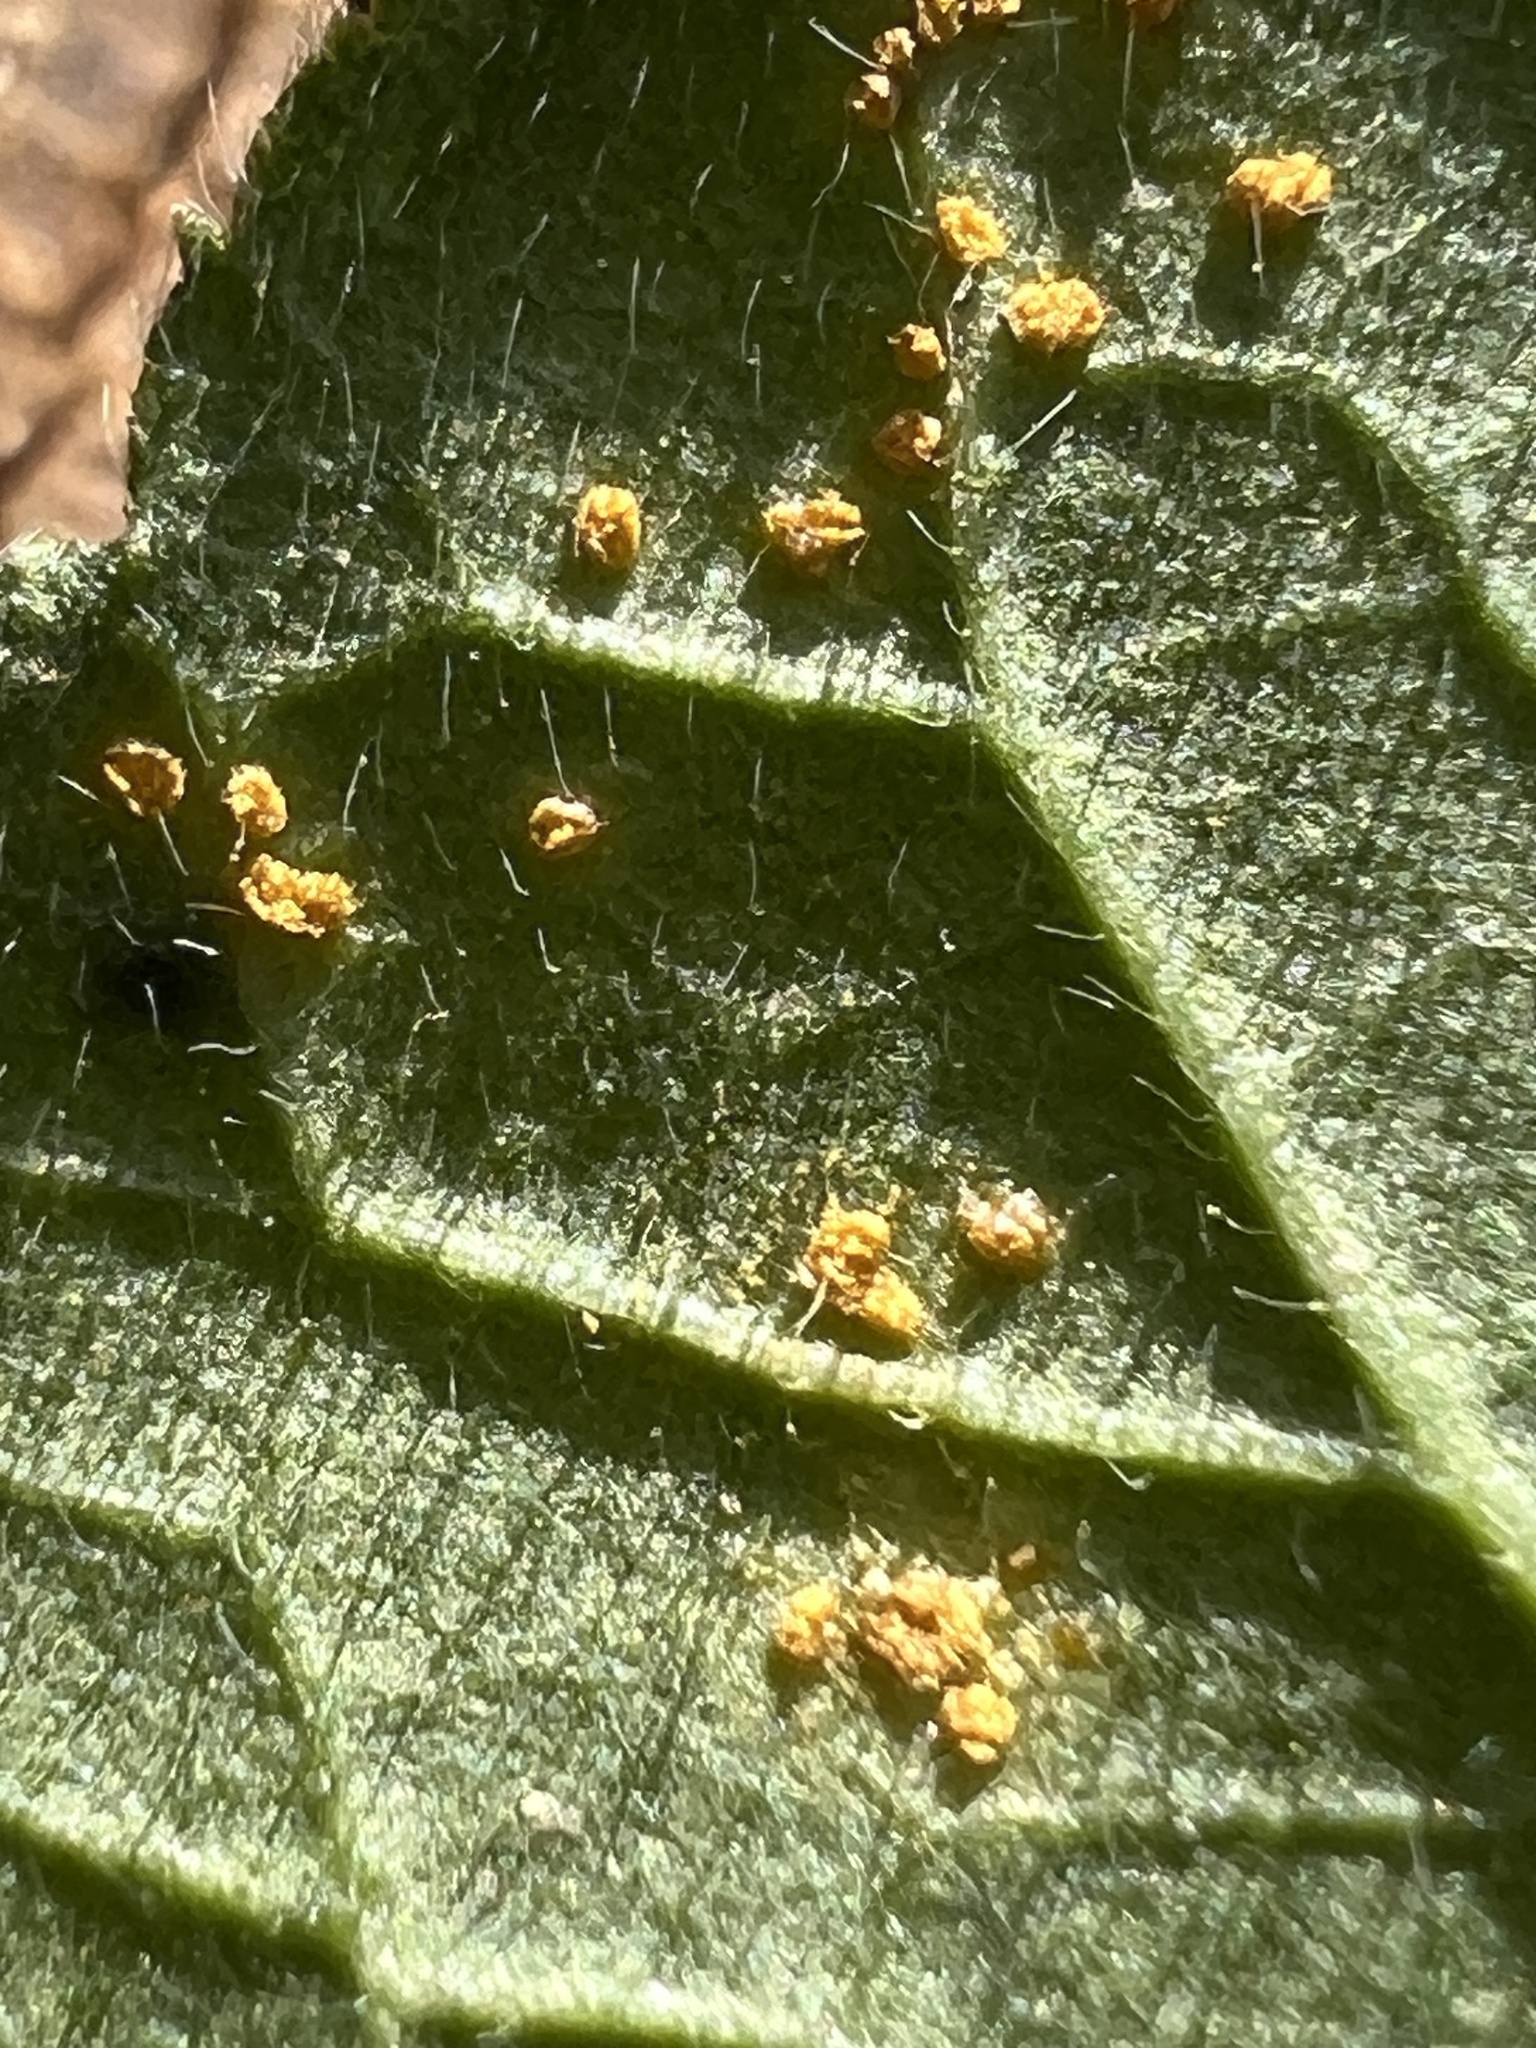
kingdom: Fungi
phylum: Basidiomycota
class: Pucciniomycetes
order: Pucciniales
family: Coleosporiaceae
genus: Coleosporium
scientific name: Coleosporium elephantopodis
